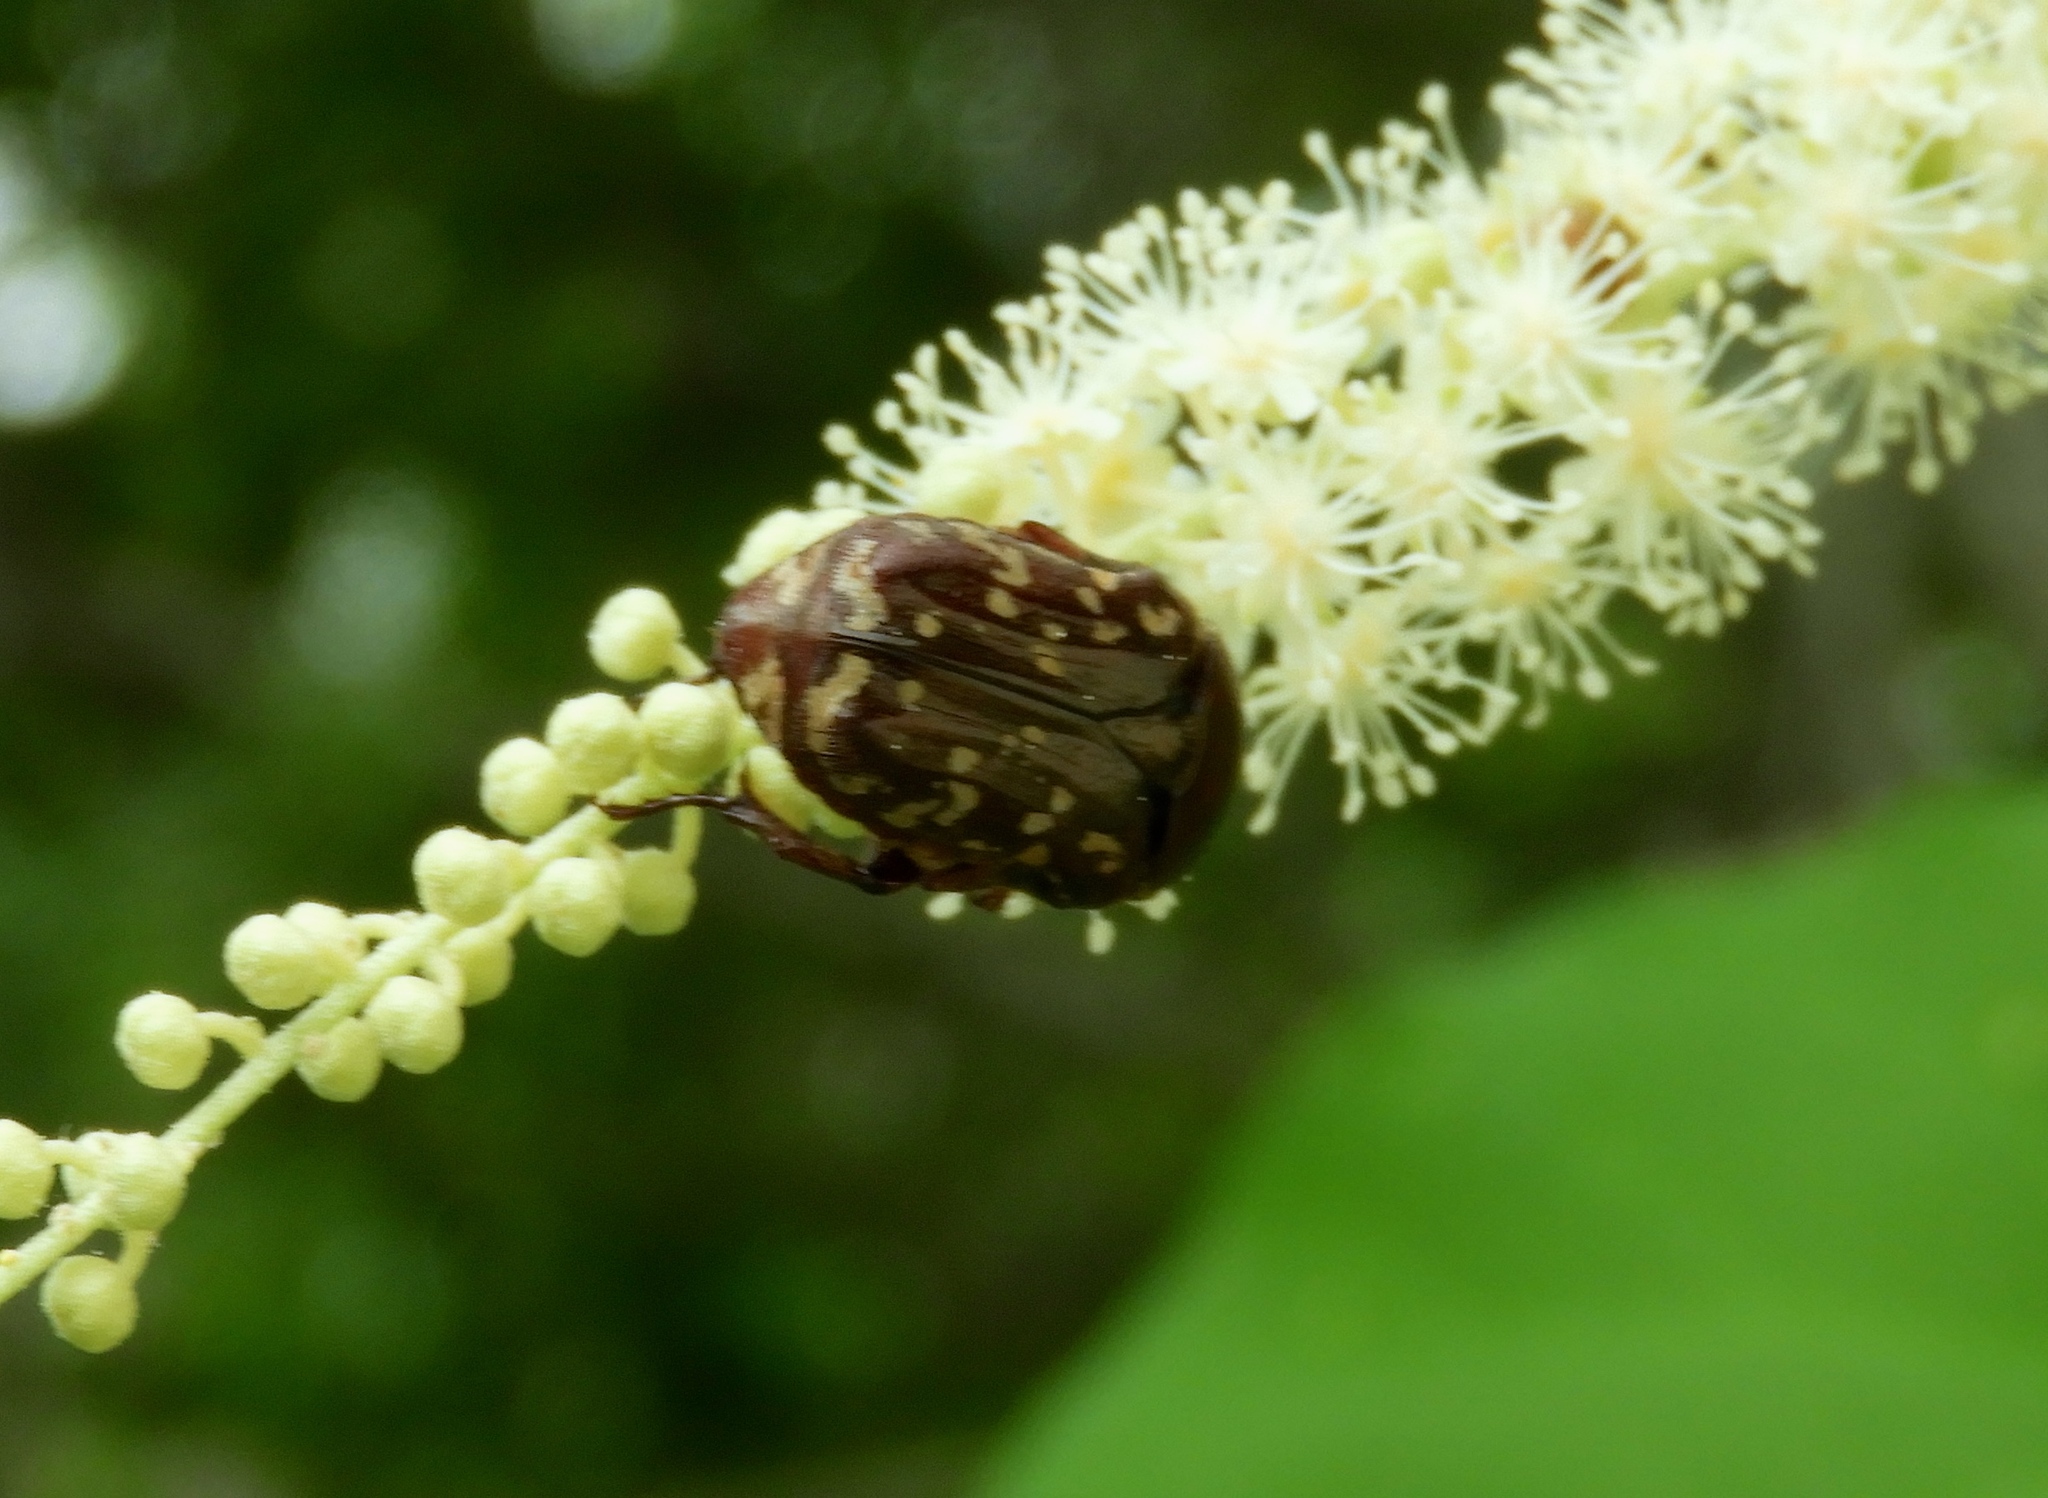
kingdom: Animalia
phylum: Arthropoda
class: Insecta
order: Coleoptera
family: Scarabaeidae
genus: Euphoria
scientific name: Euphoria leucographa
